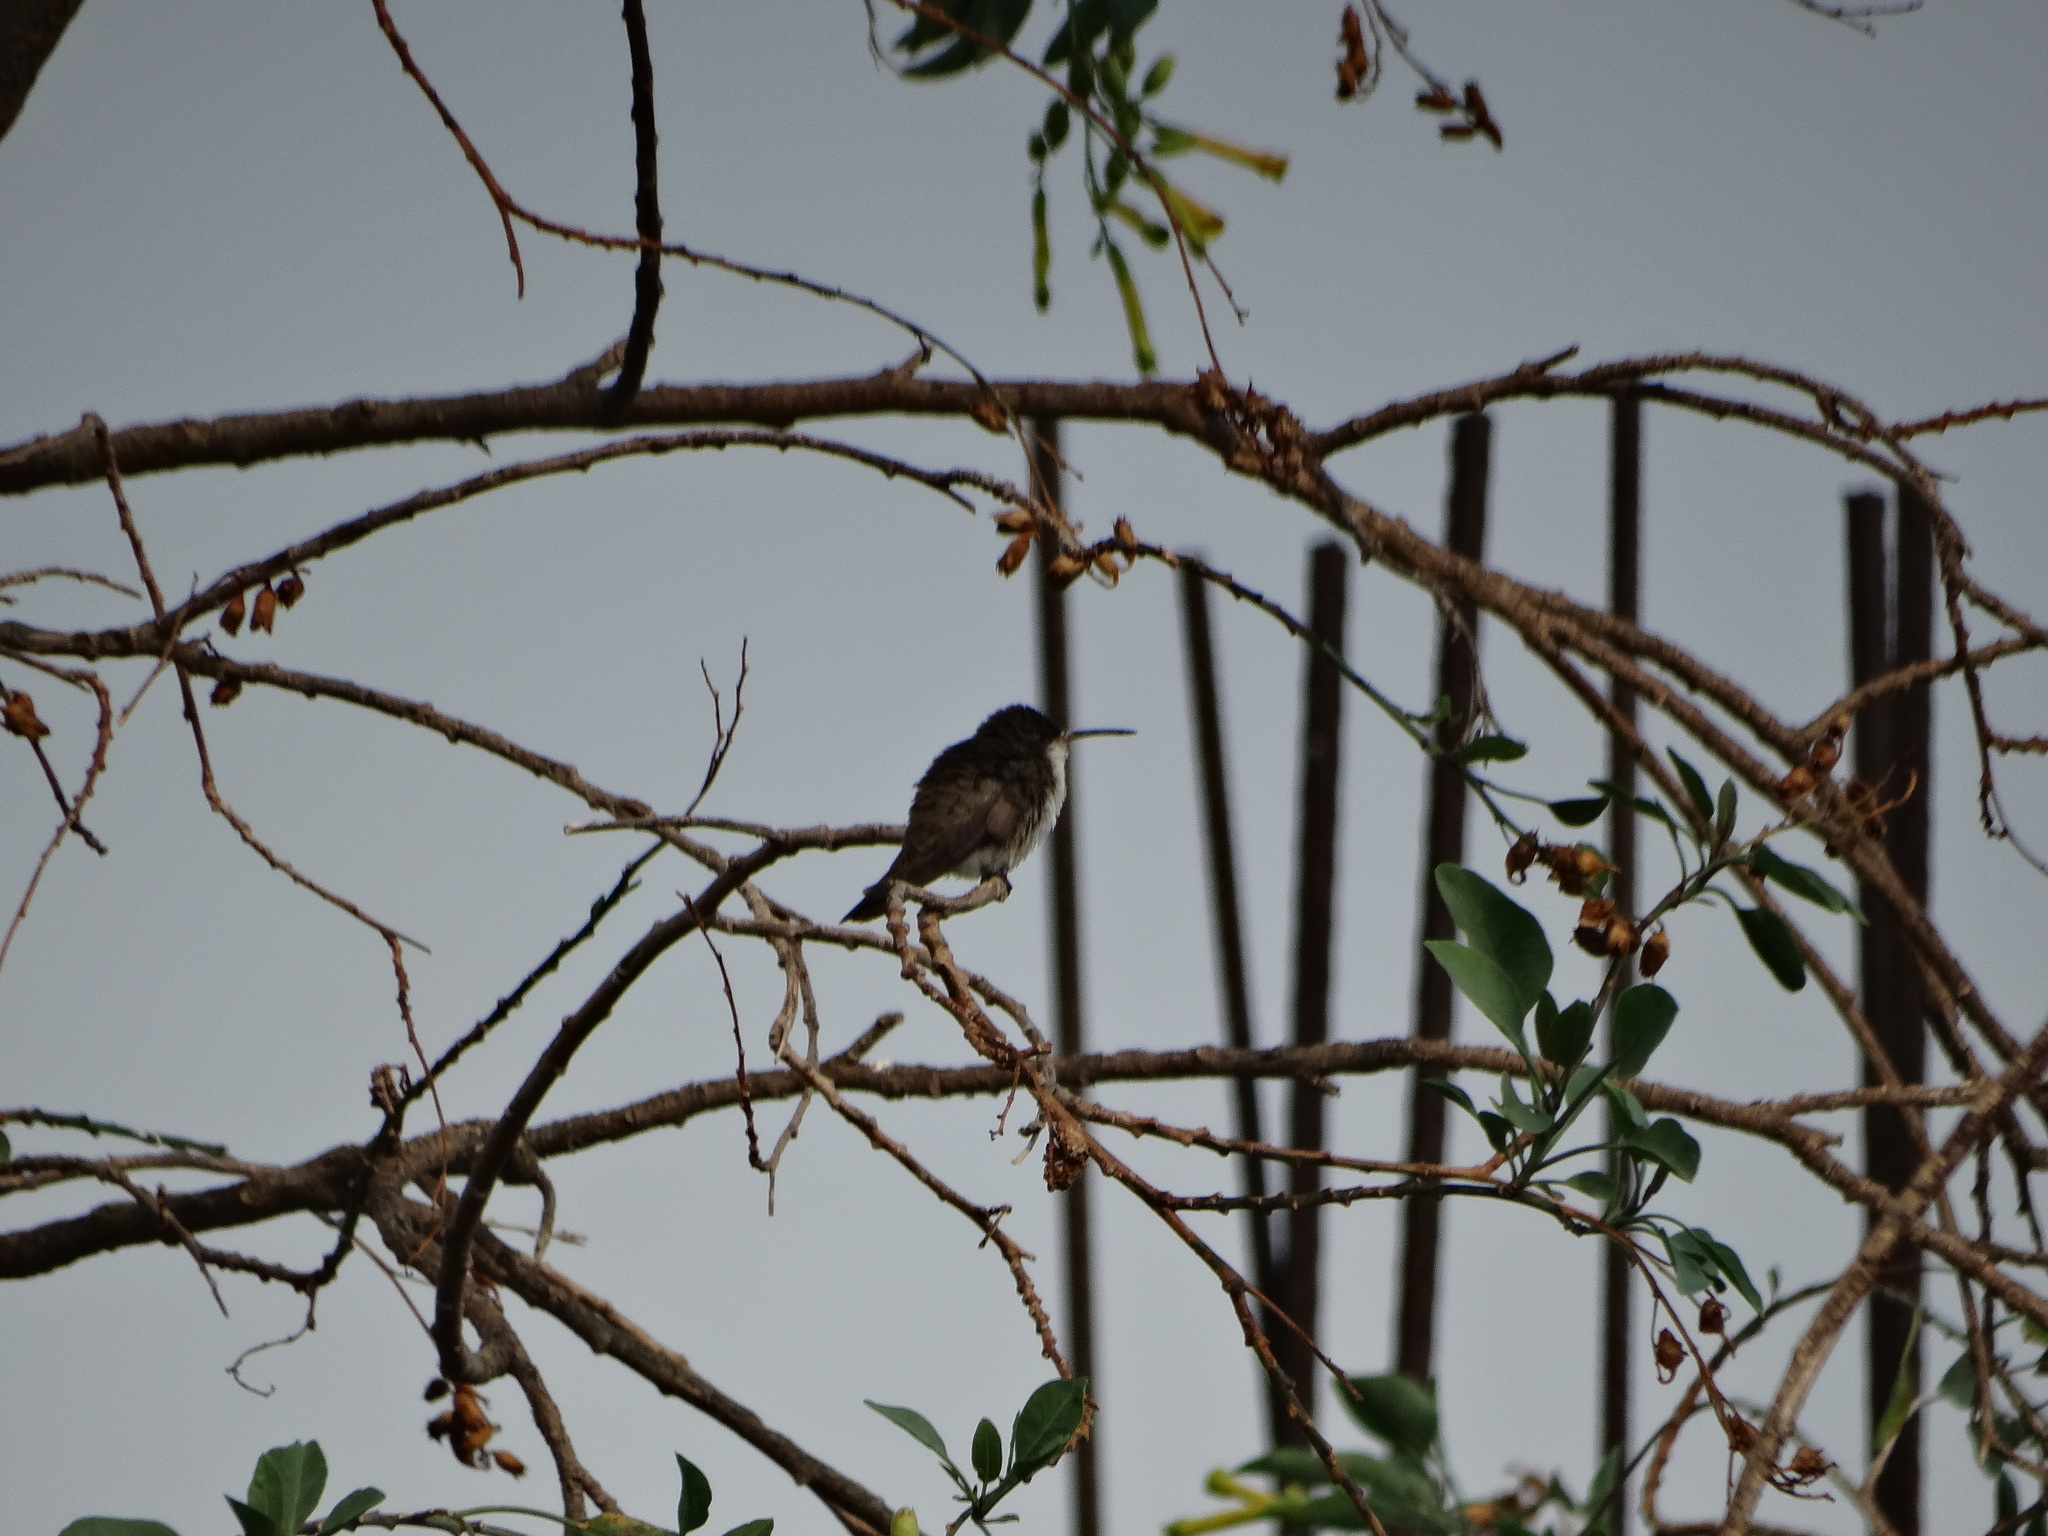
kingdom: Animalia
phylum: Chordata
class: Aves
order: Apodiformes
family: Trochilidae
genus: Leucolia
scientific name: Leucolia violiceps
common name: Violet-crowned hummingbird
